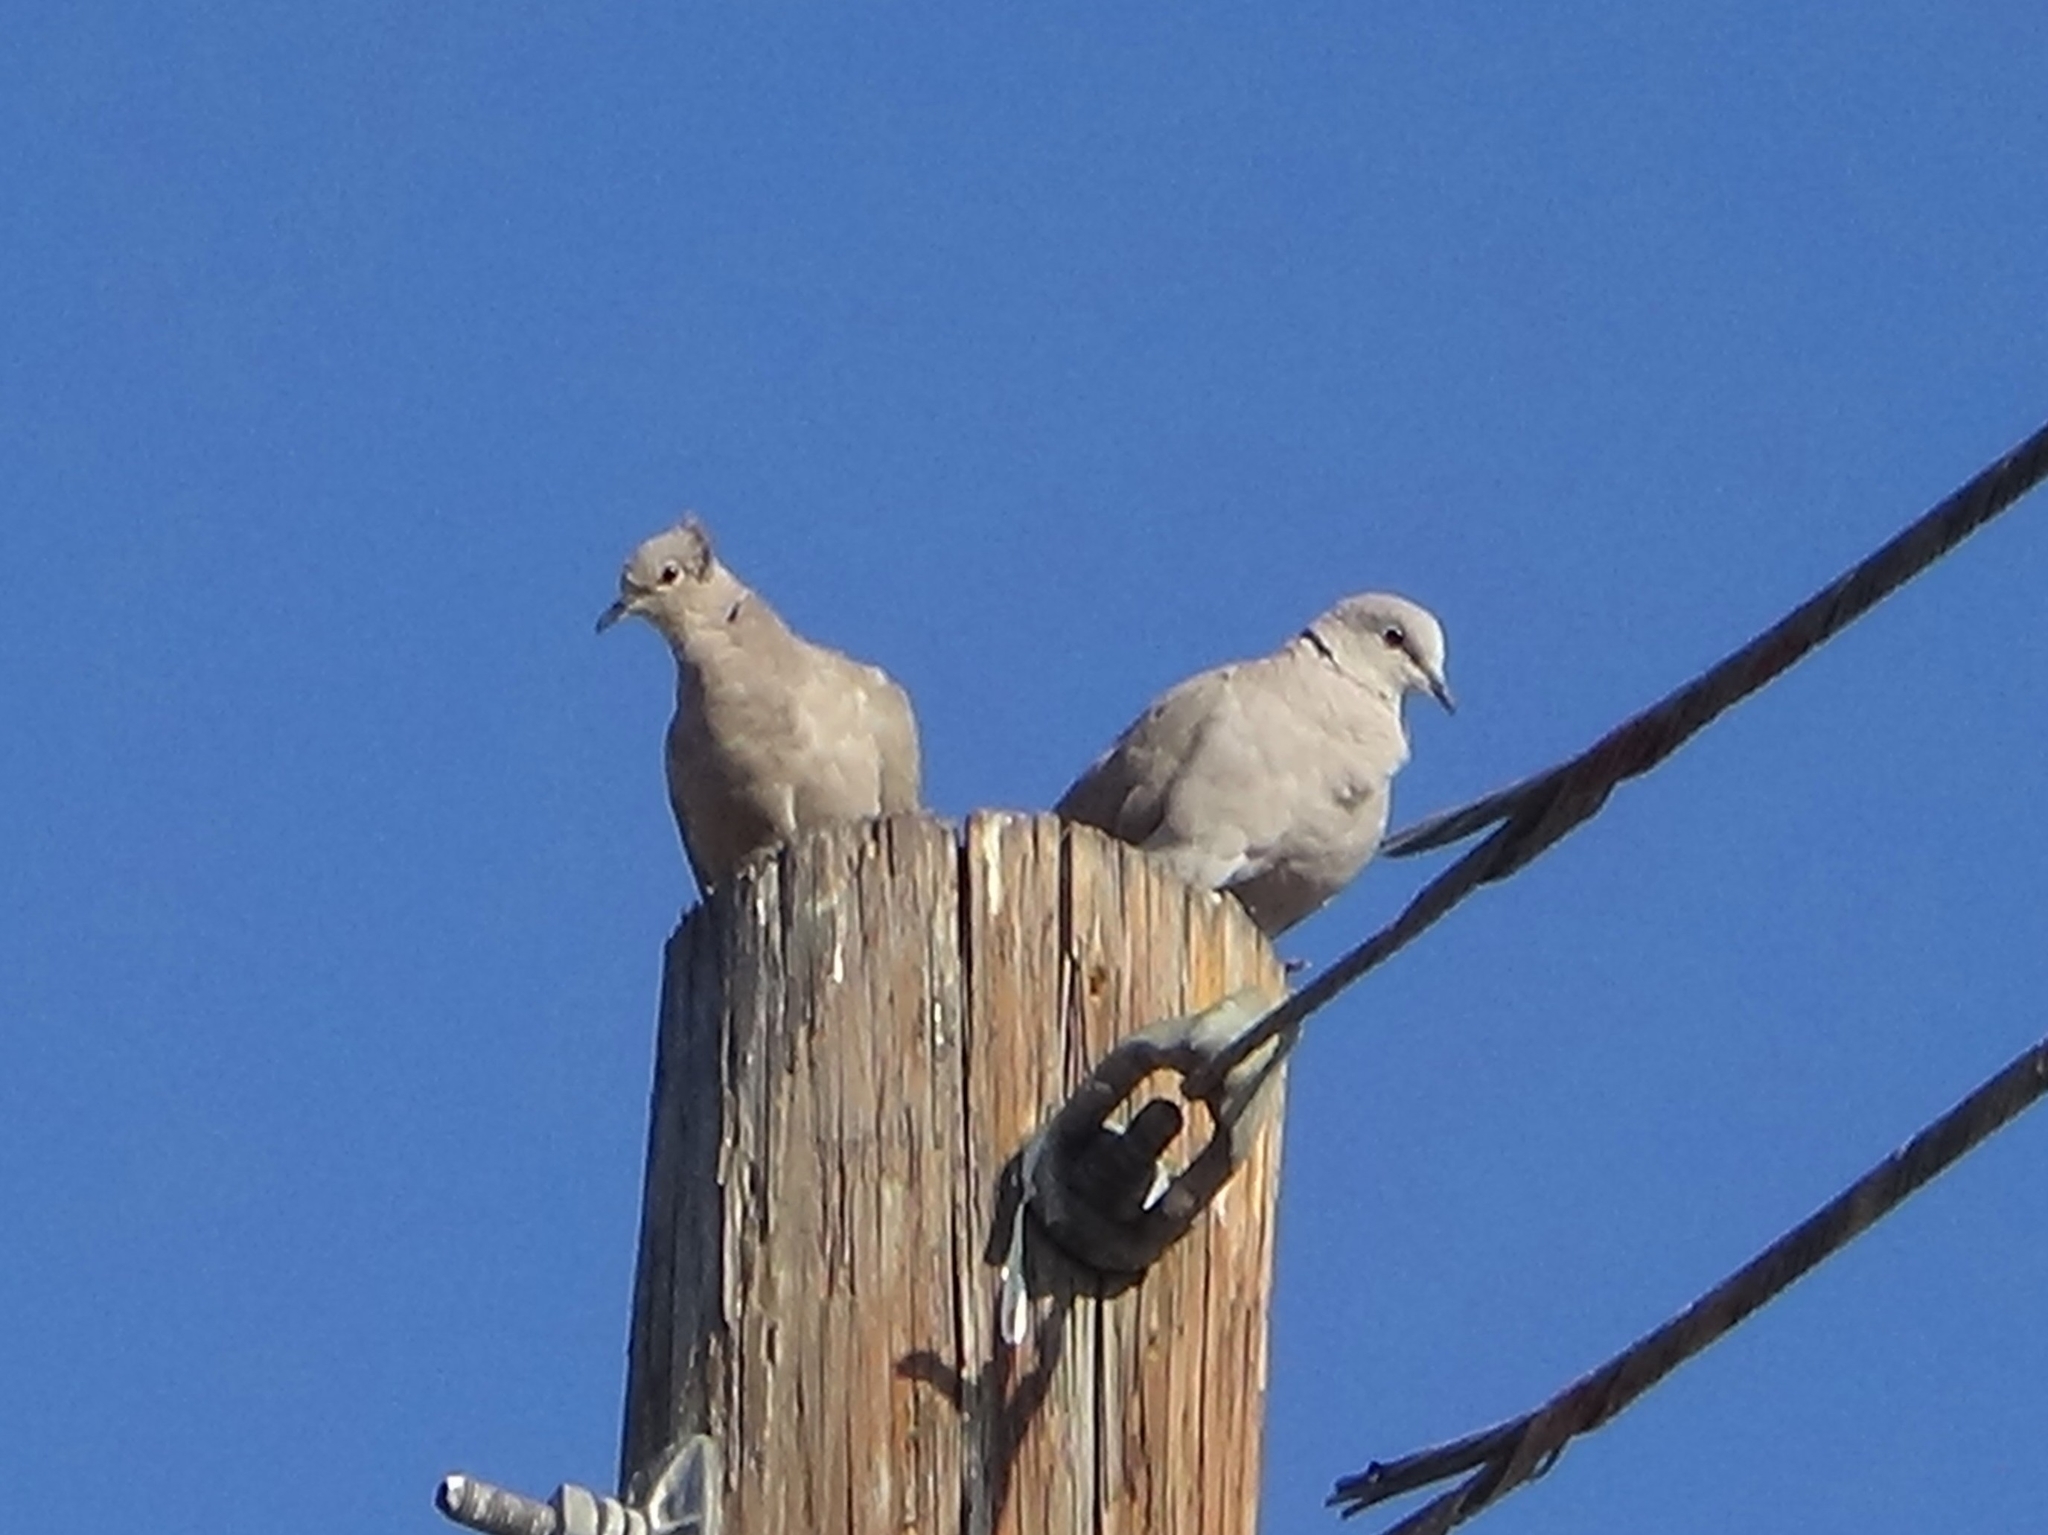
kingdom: Animalia
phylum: Chordata
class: Aves
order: Columbiformes
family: Columbidae
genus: Streptopelia
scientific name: Streptopelia decaocto
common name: Eurasian collared dove
